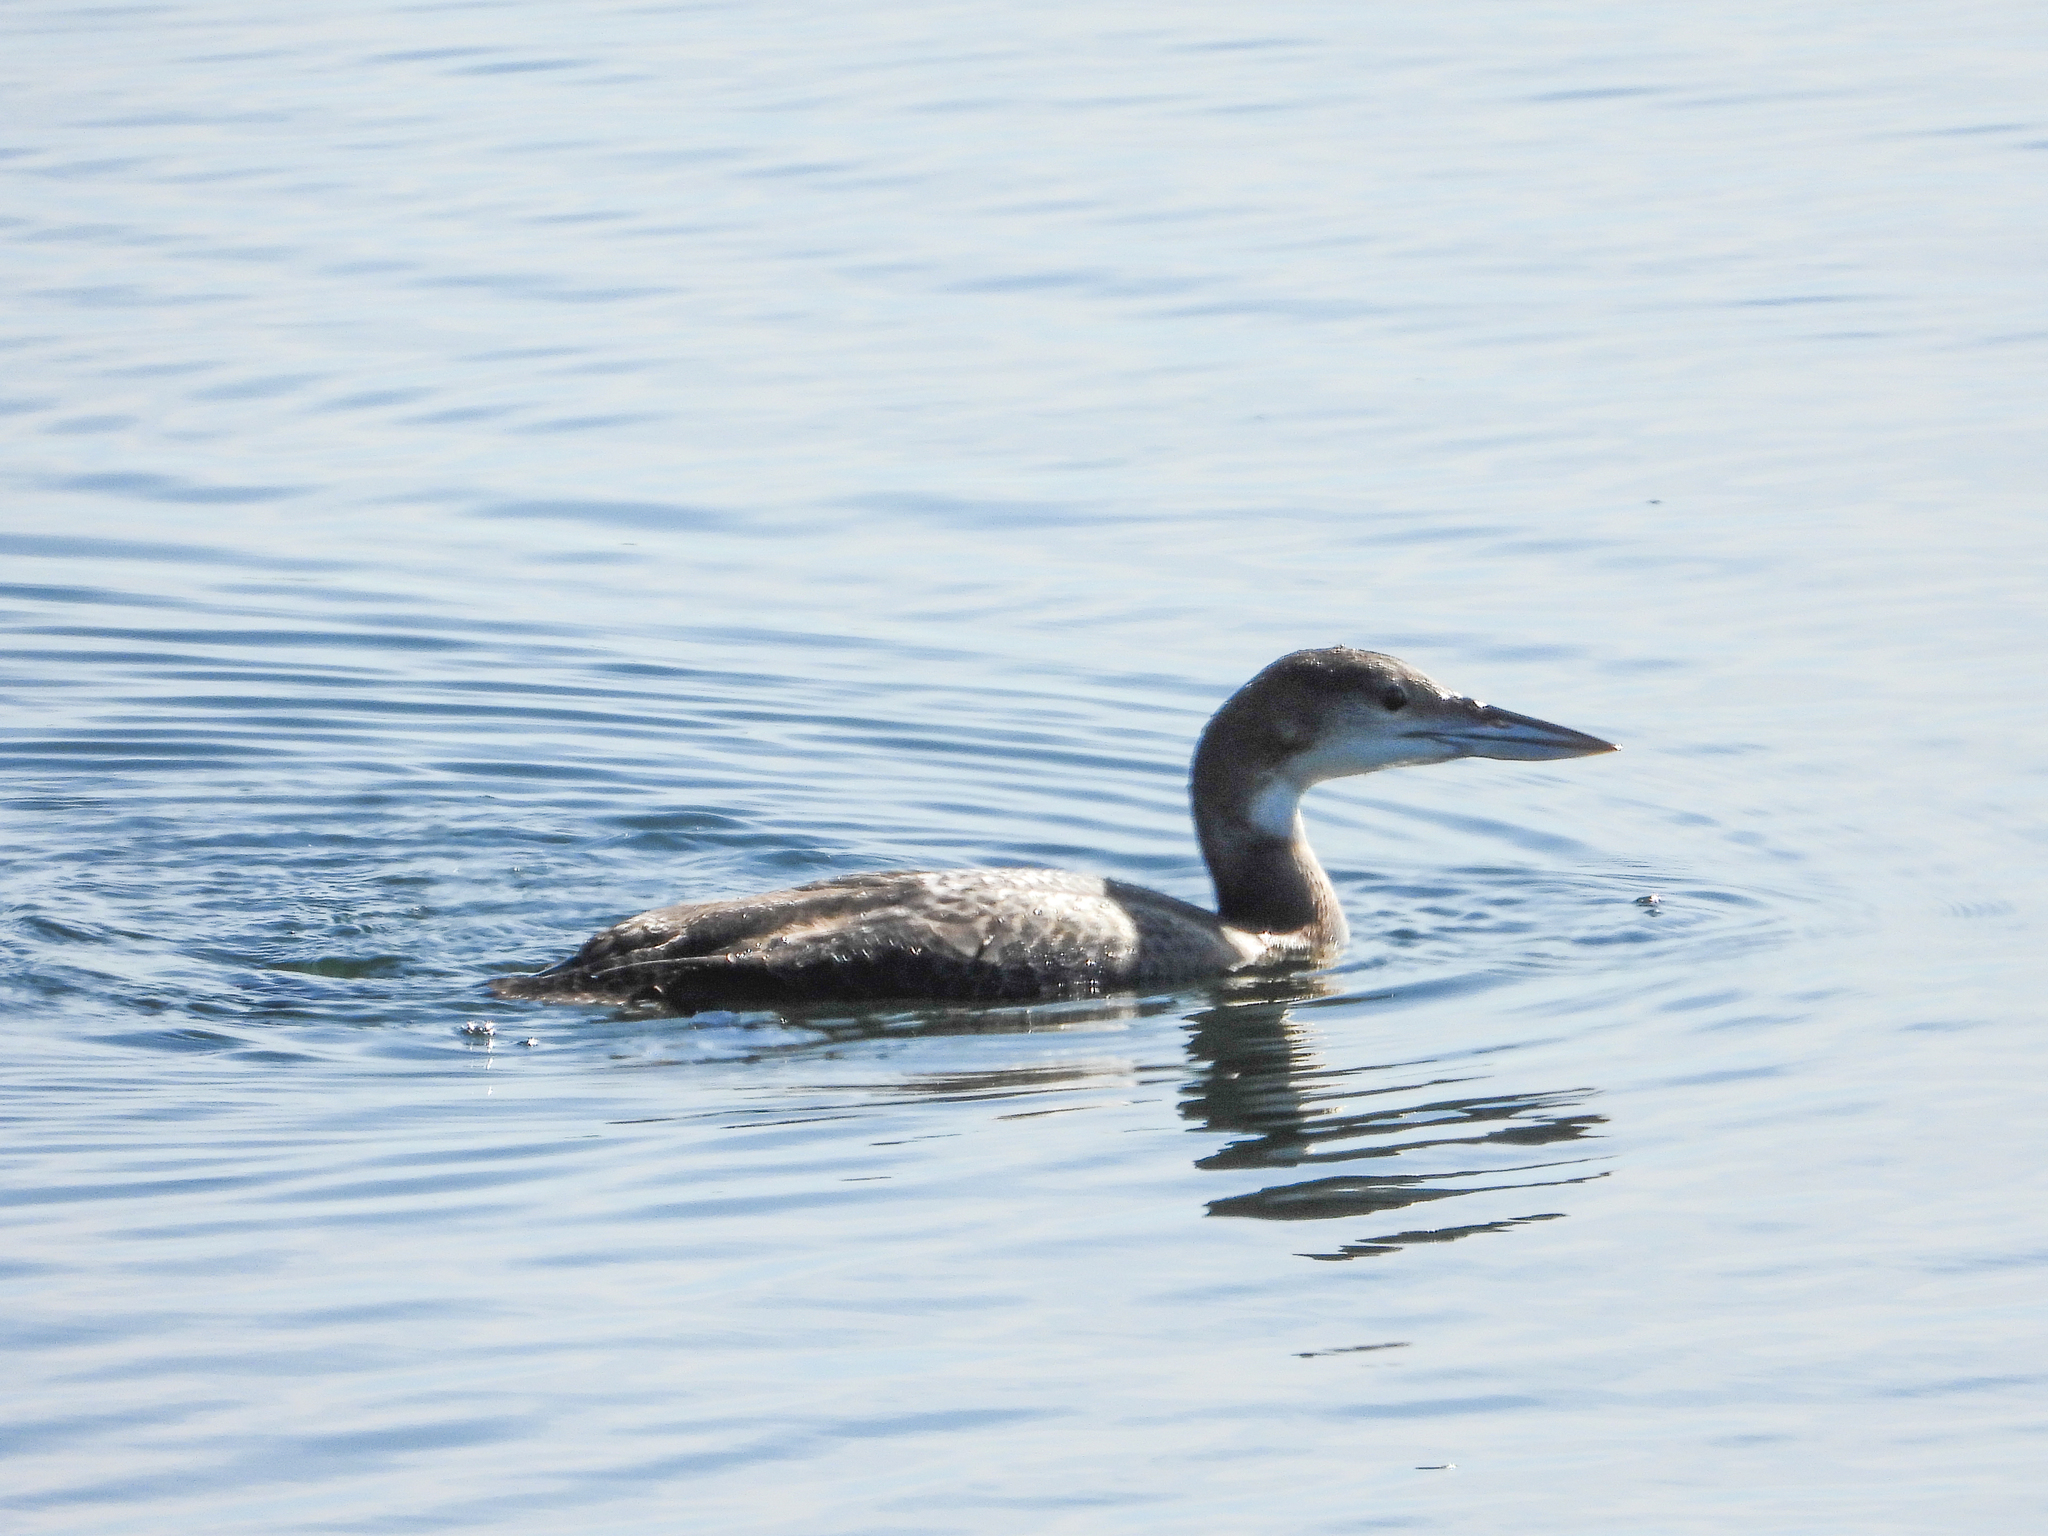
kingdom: Animalia
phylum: Chordata
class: Aves
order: Gaviiformes
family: Gaviidae
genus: Gavia
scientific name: Gavia immer
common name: Common loon
